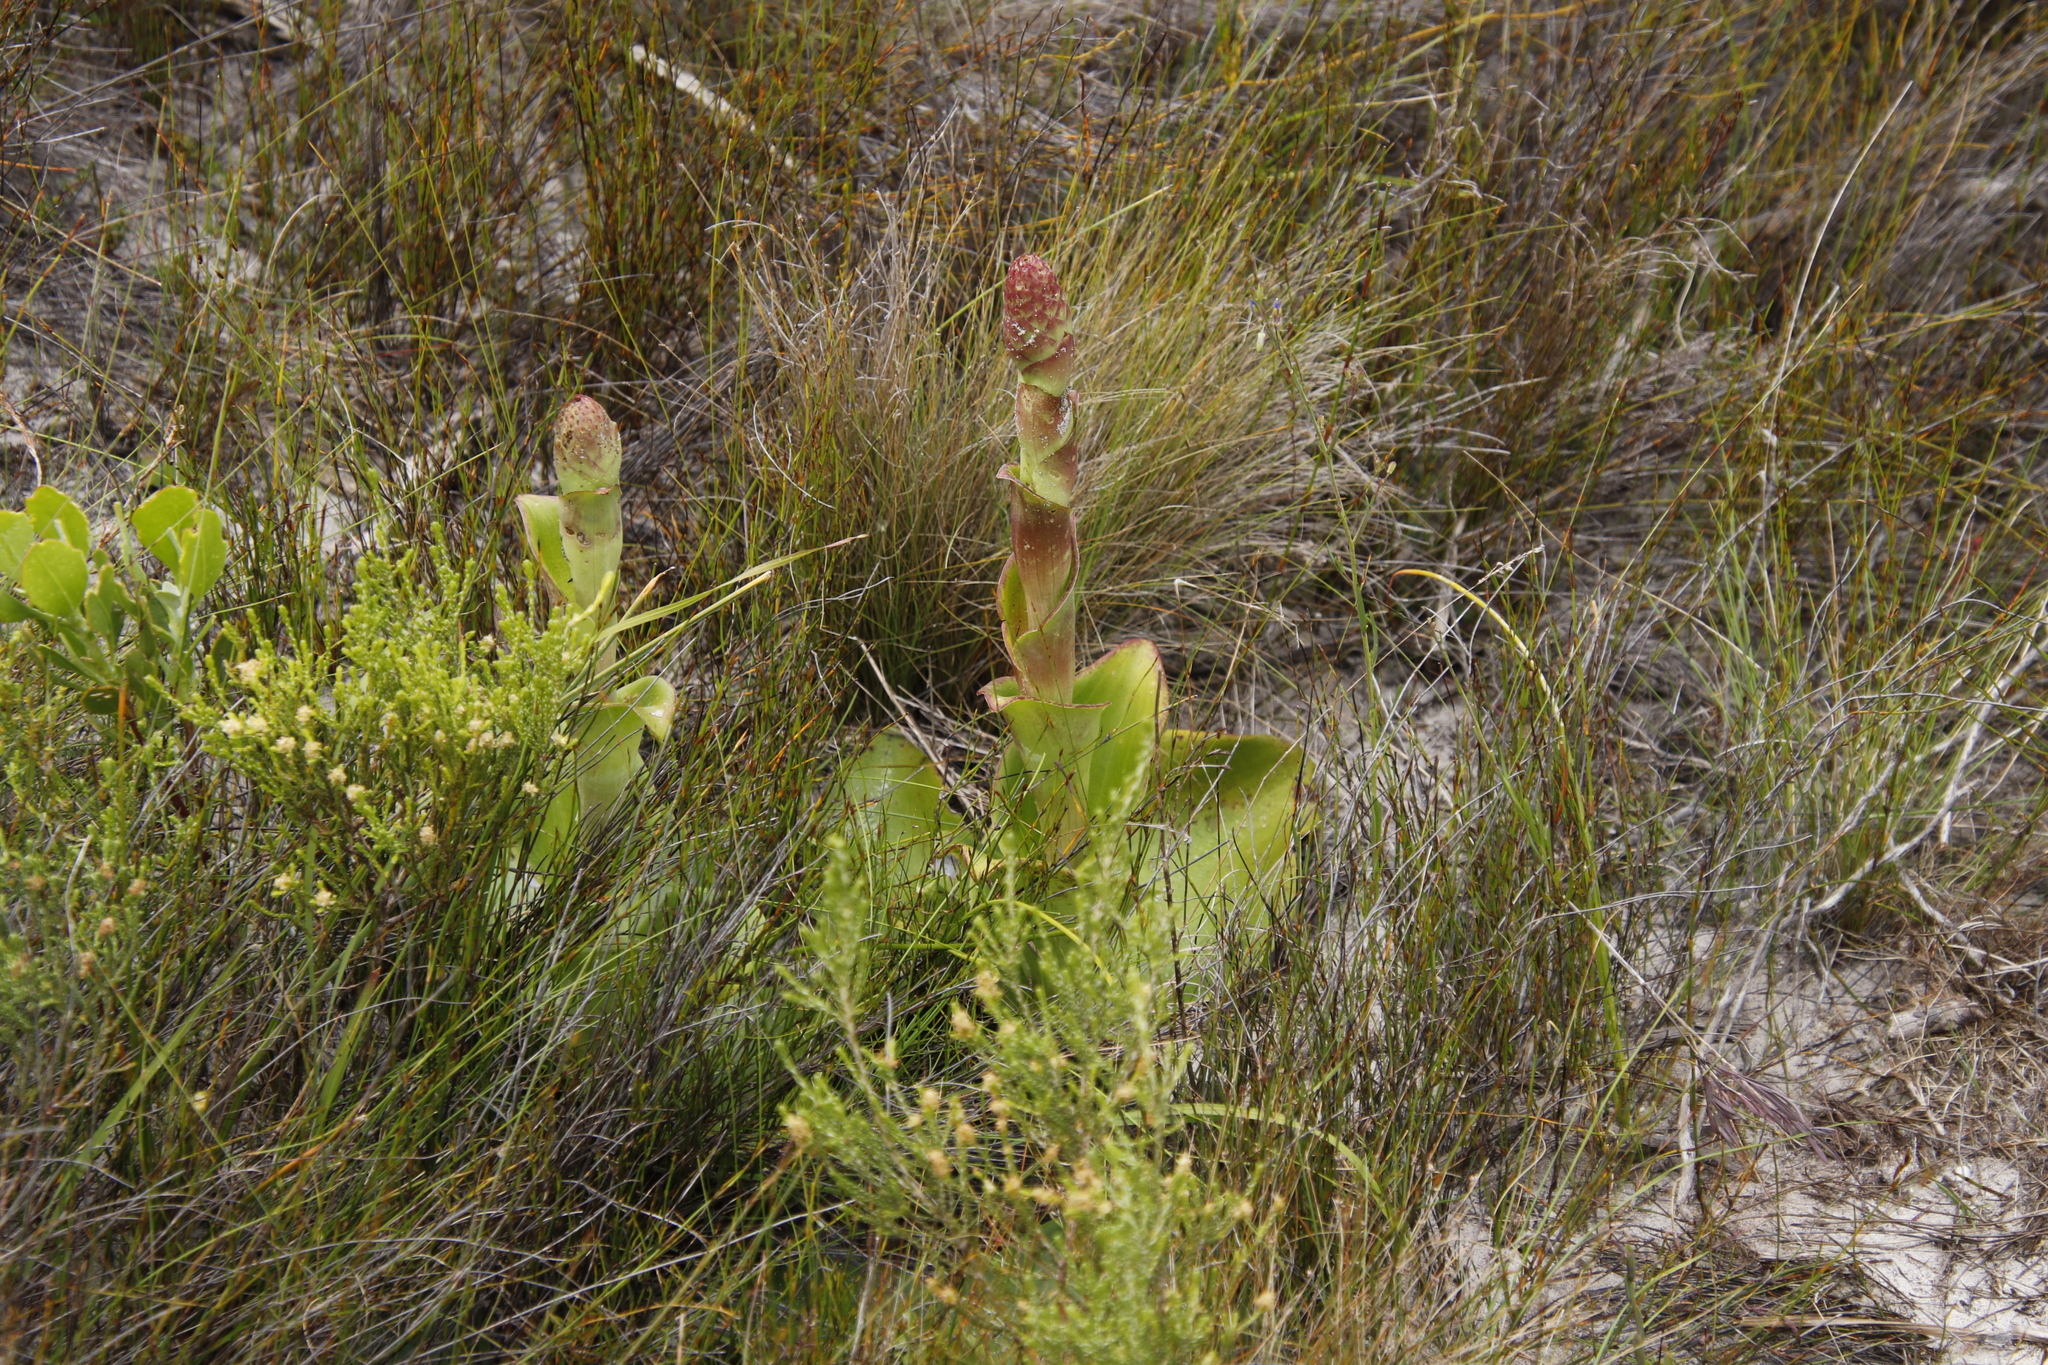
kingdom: Plantae
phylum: Tracheophyta
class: Liliopsida
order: Asparagales
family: Orchidaceae
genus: Satyrium
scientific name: Satyrium carneum
